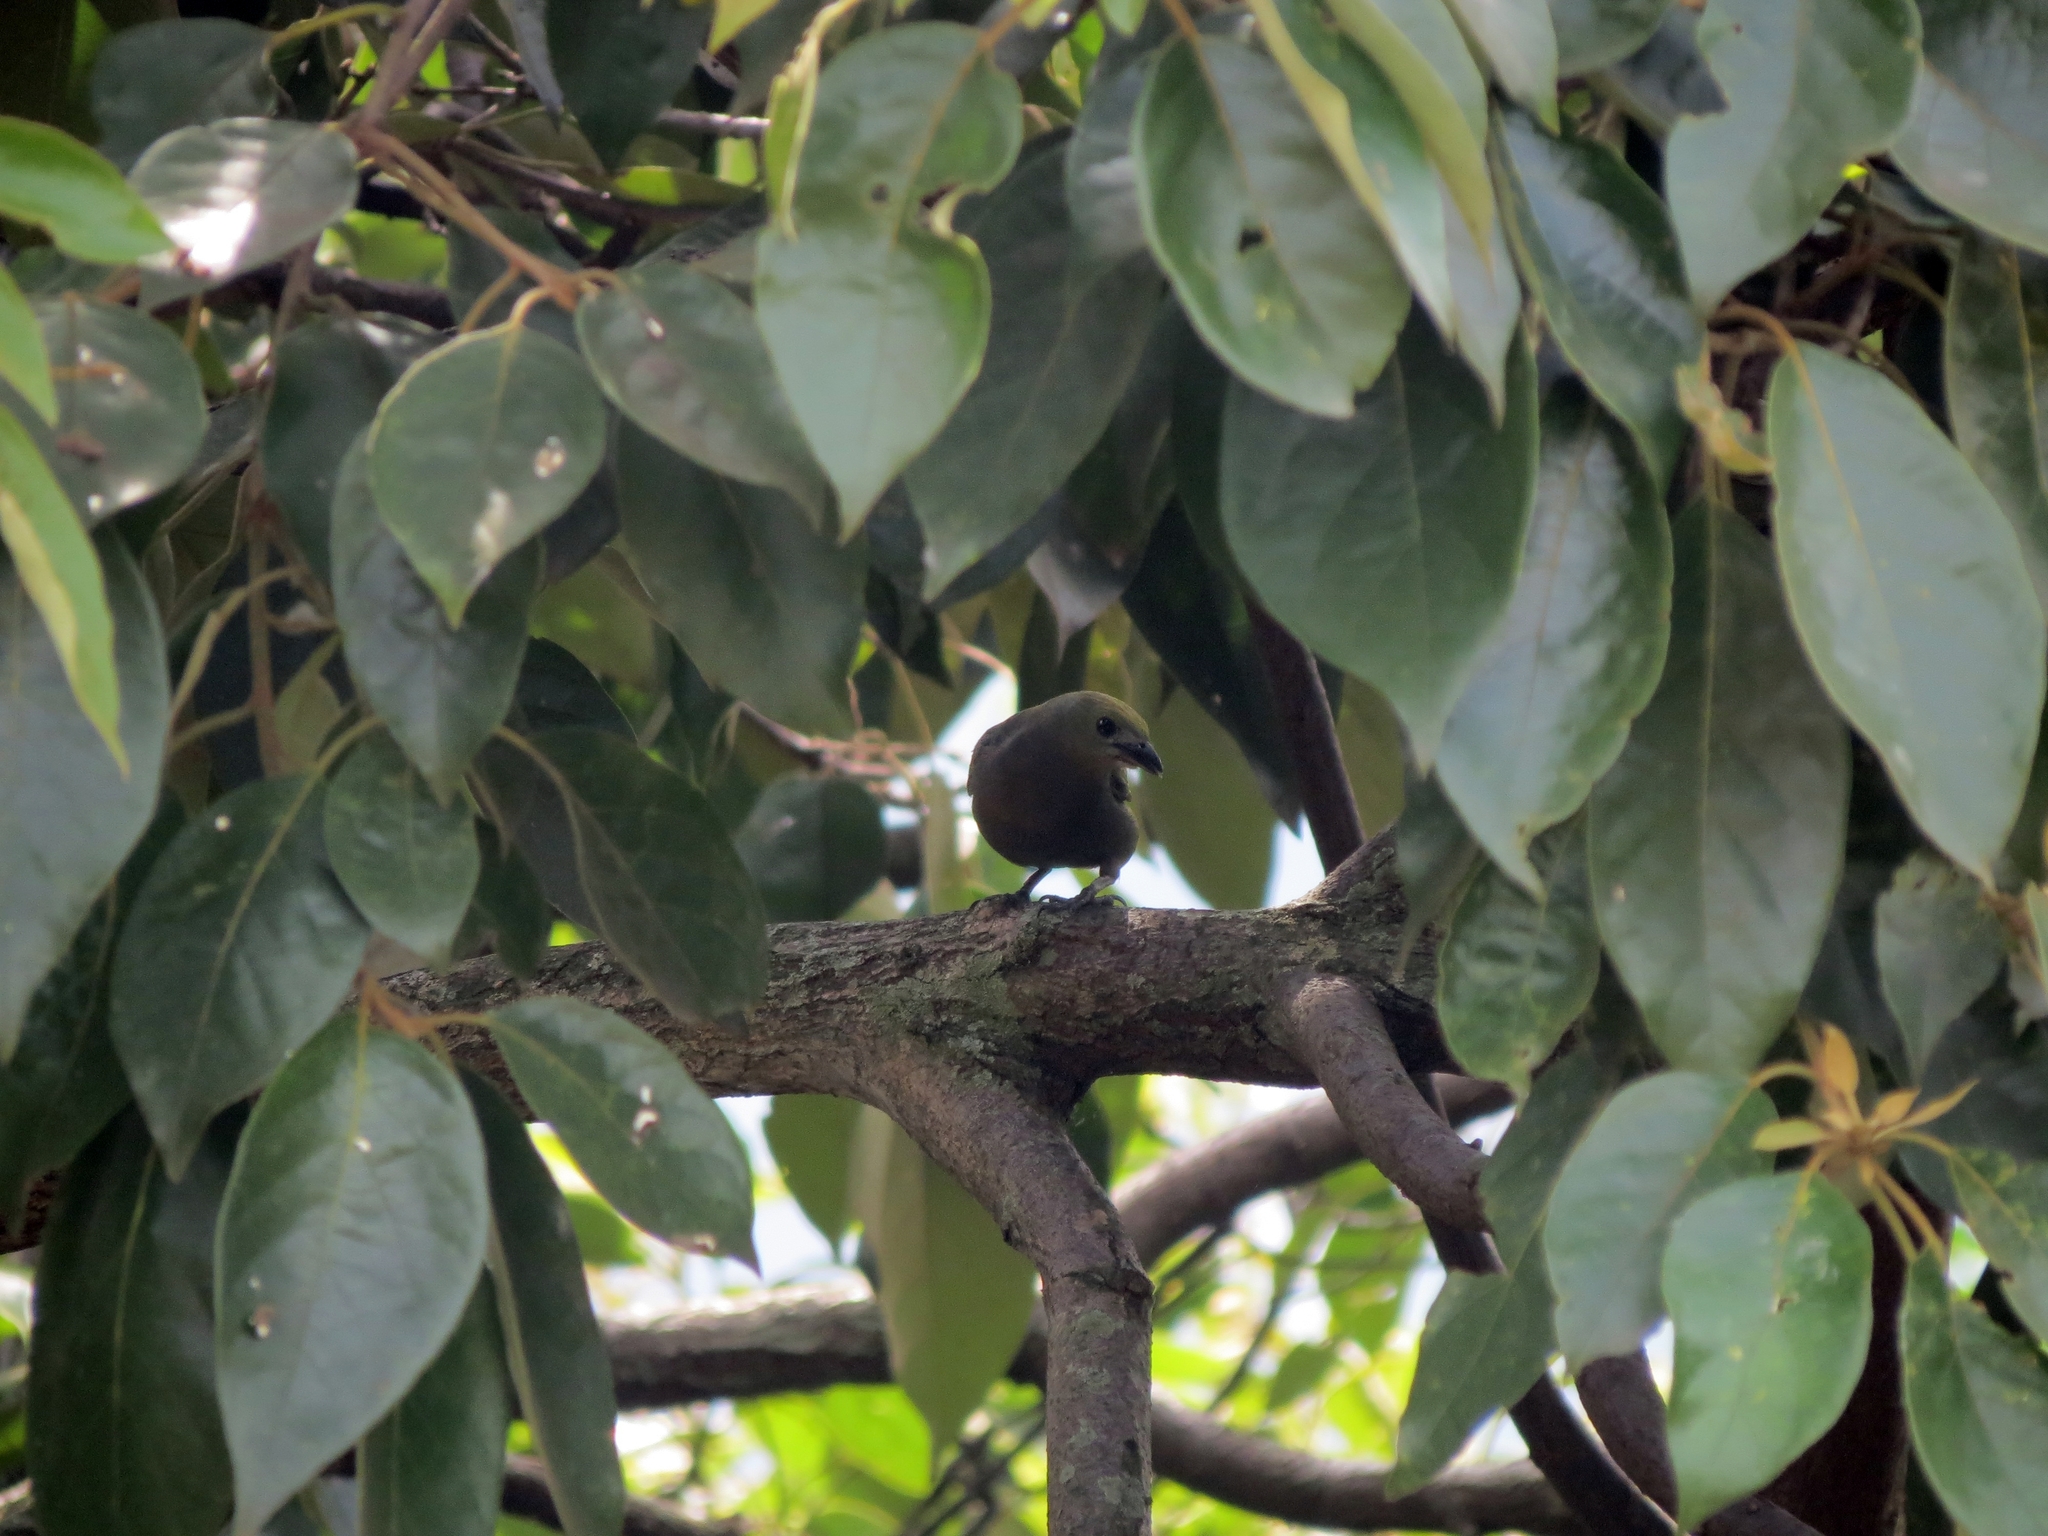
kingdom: Animalia
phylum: Chordata
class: Aves
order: Passeriformes
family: Thraupidae
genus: Thraupis
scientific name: Thraupis palmarum
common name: Palm tanager
